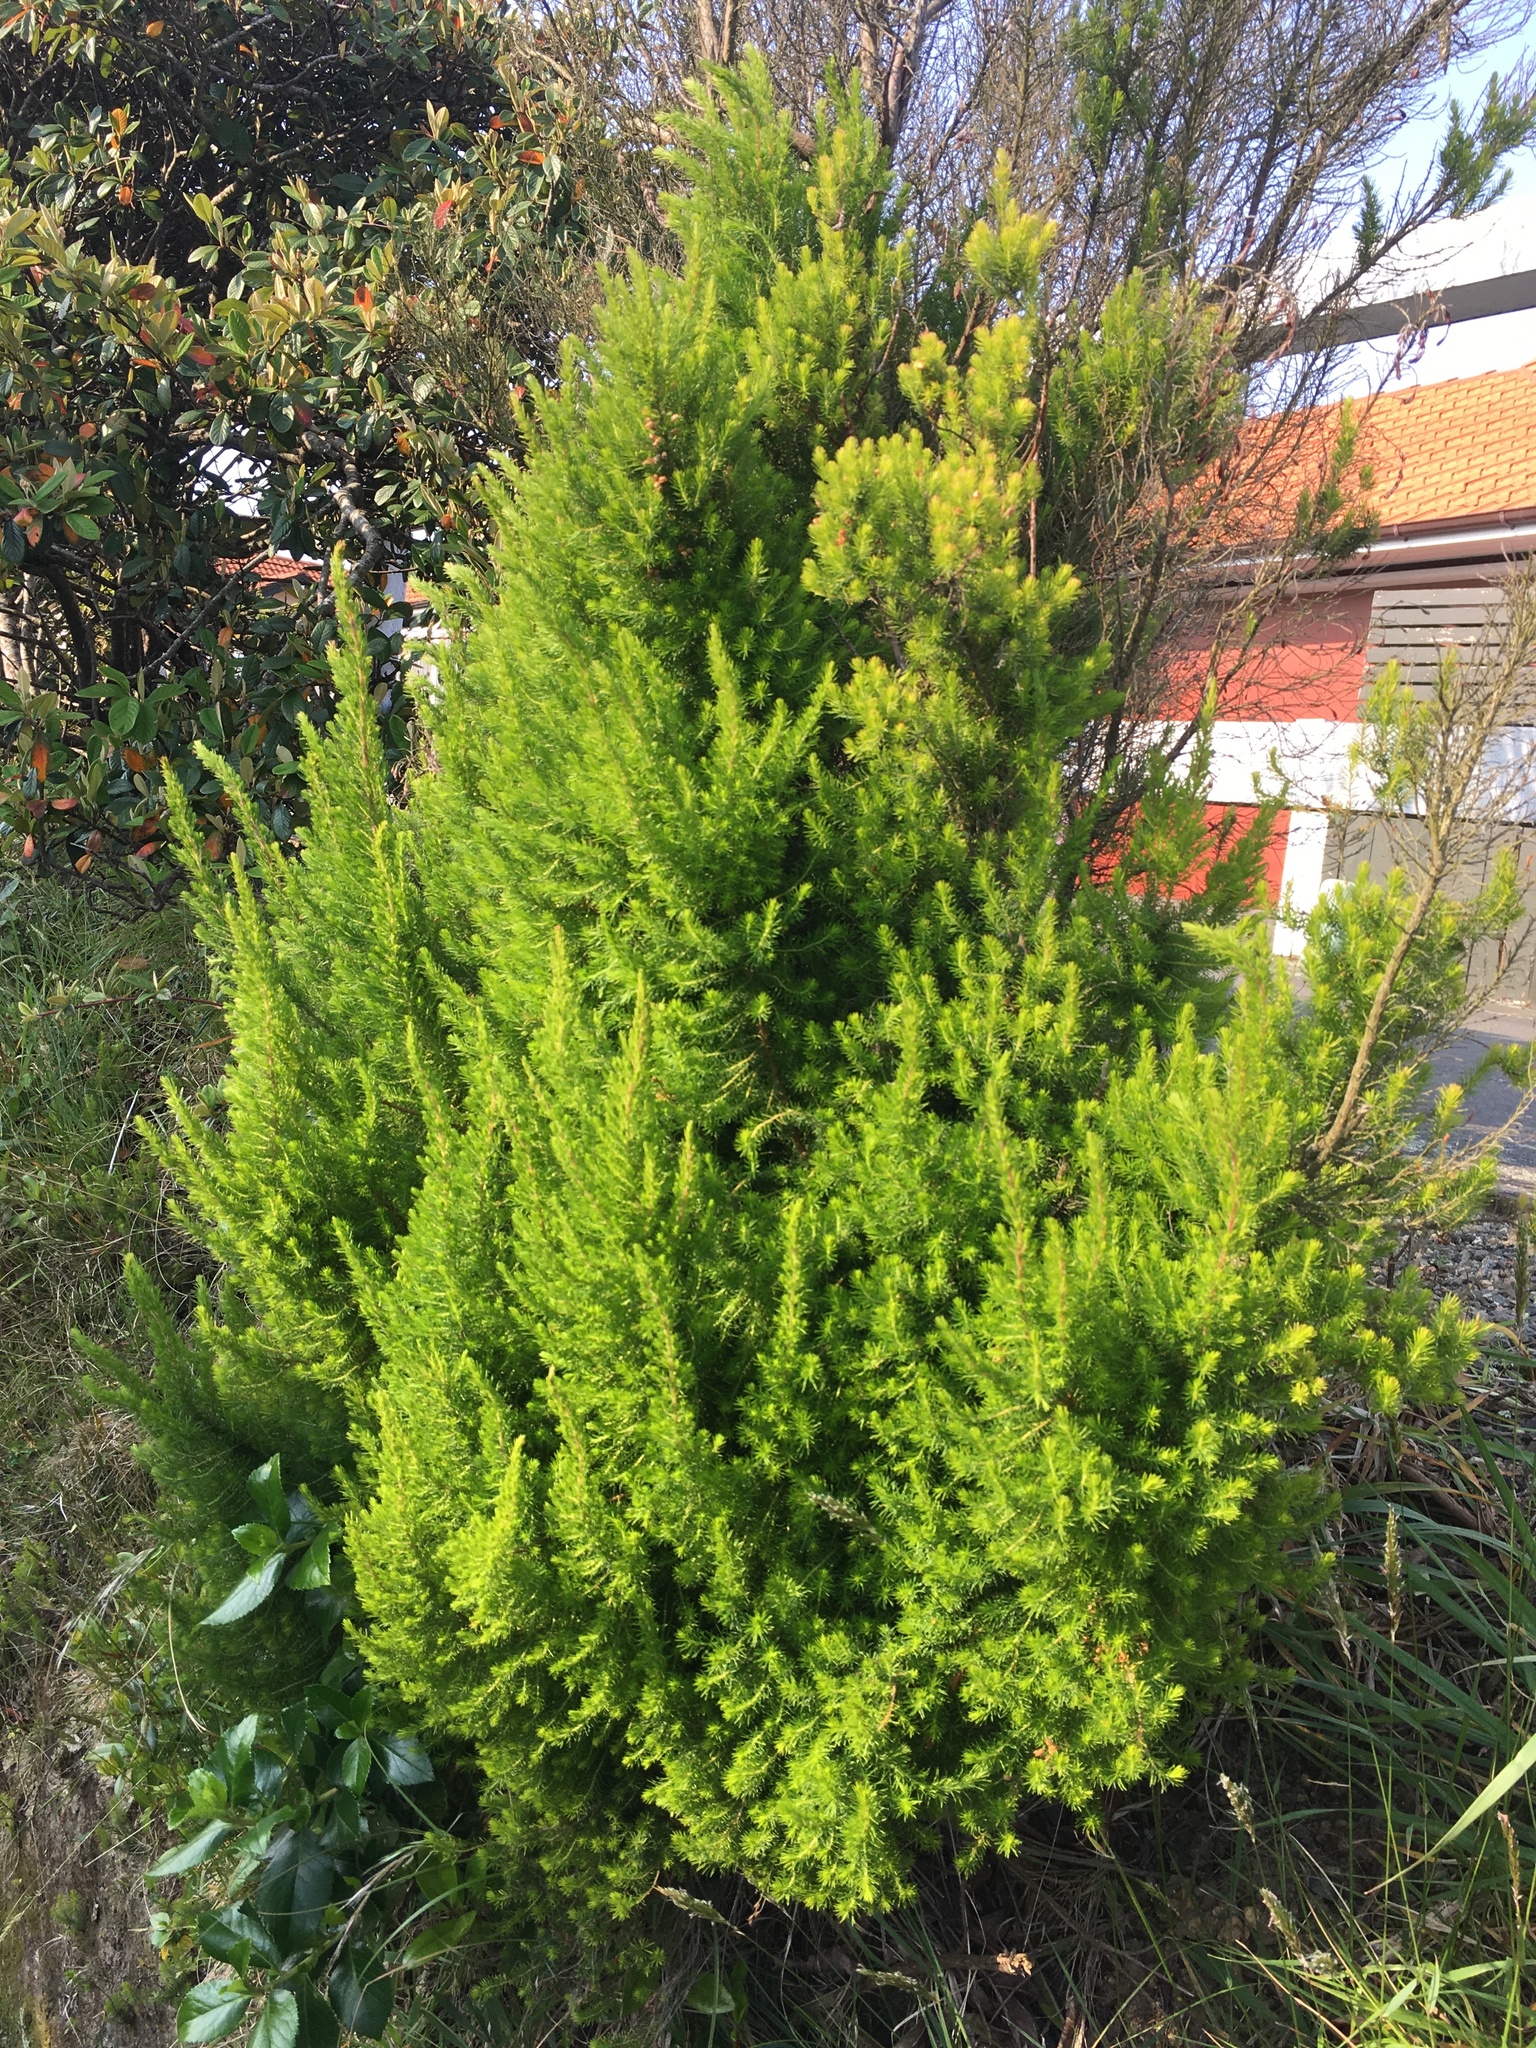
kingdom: Plantae
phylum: Tracheophyta
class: Magnoliopsida
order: Ericales
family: Ericaceae
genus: Erica
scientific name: Erica lusitanica
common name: Spanish heath
